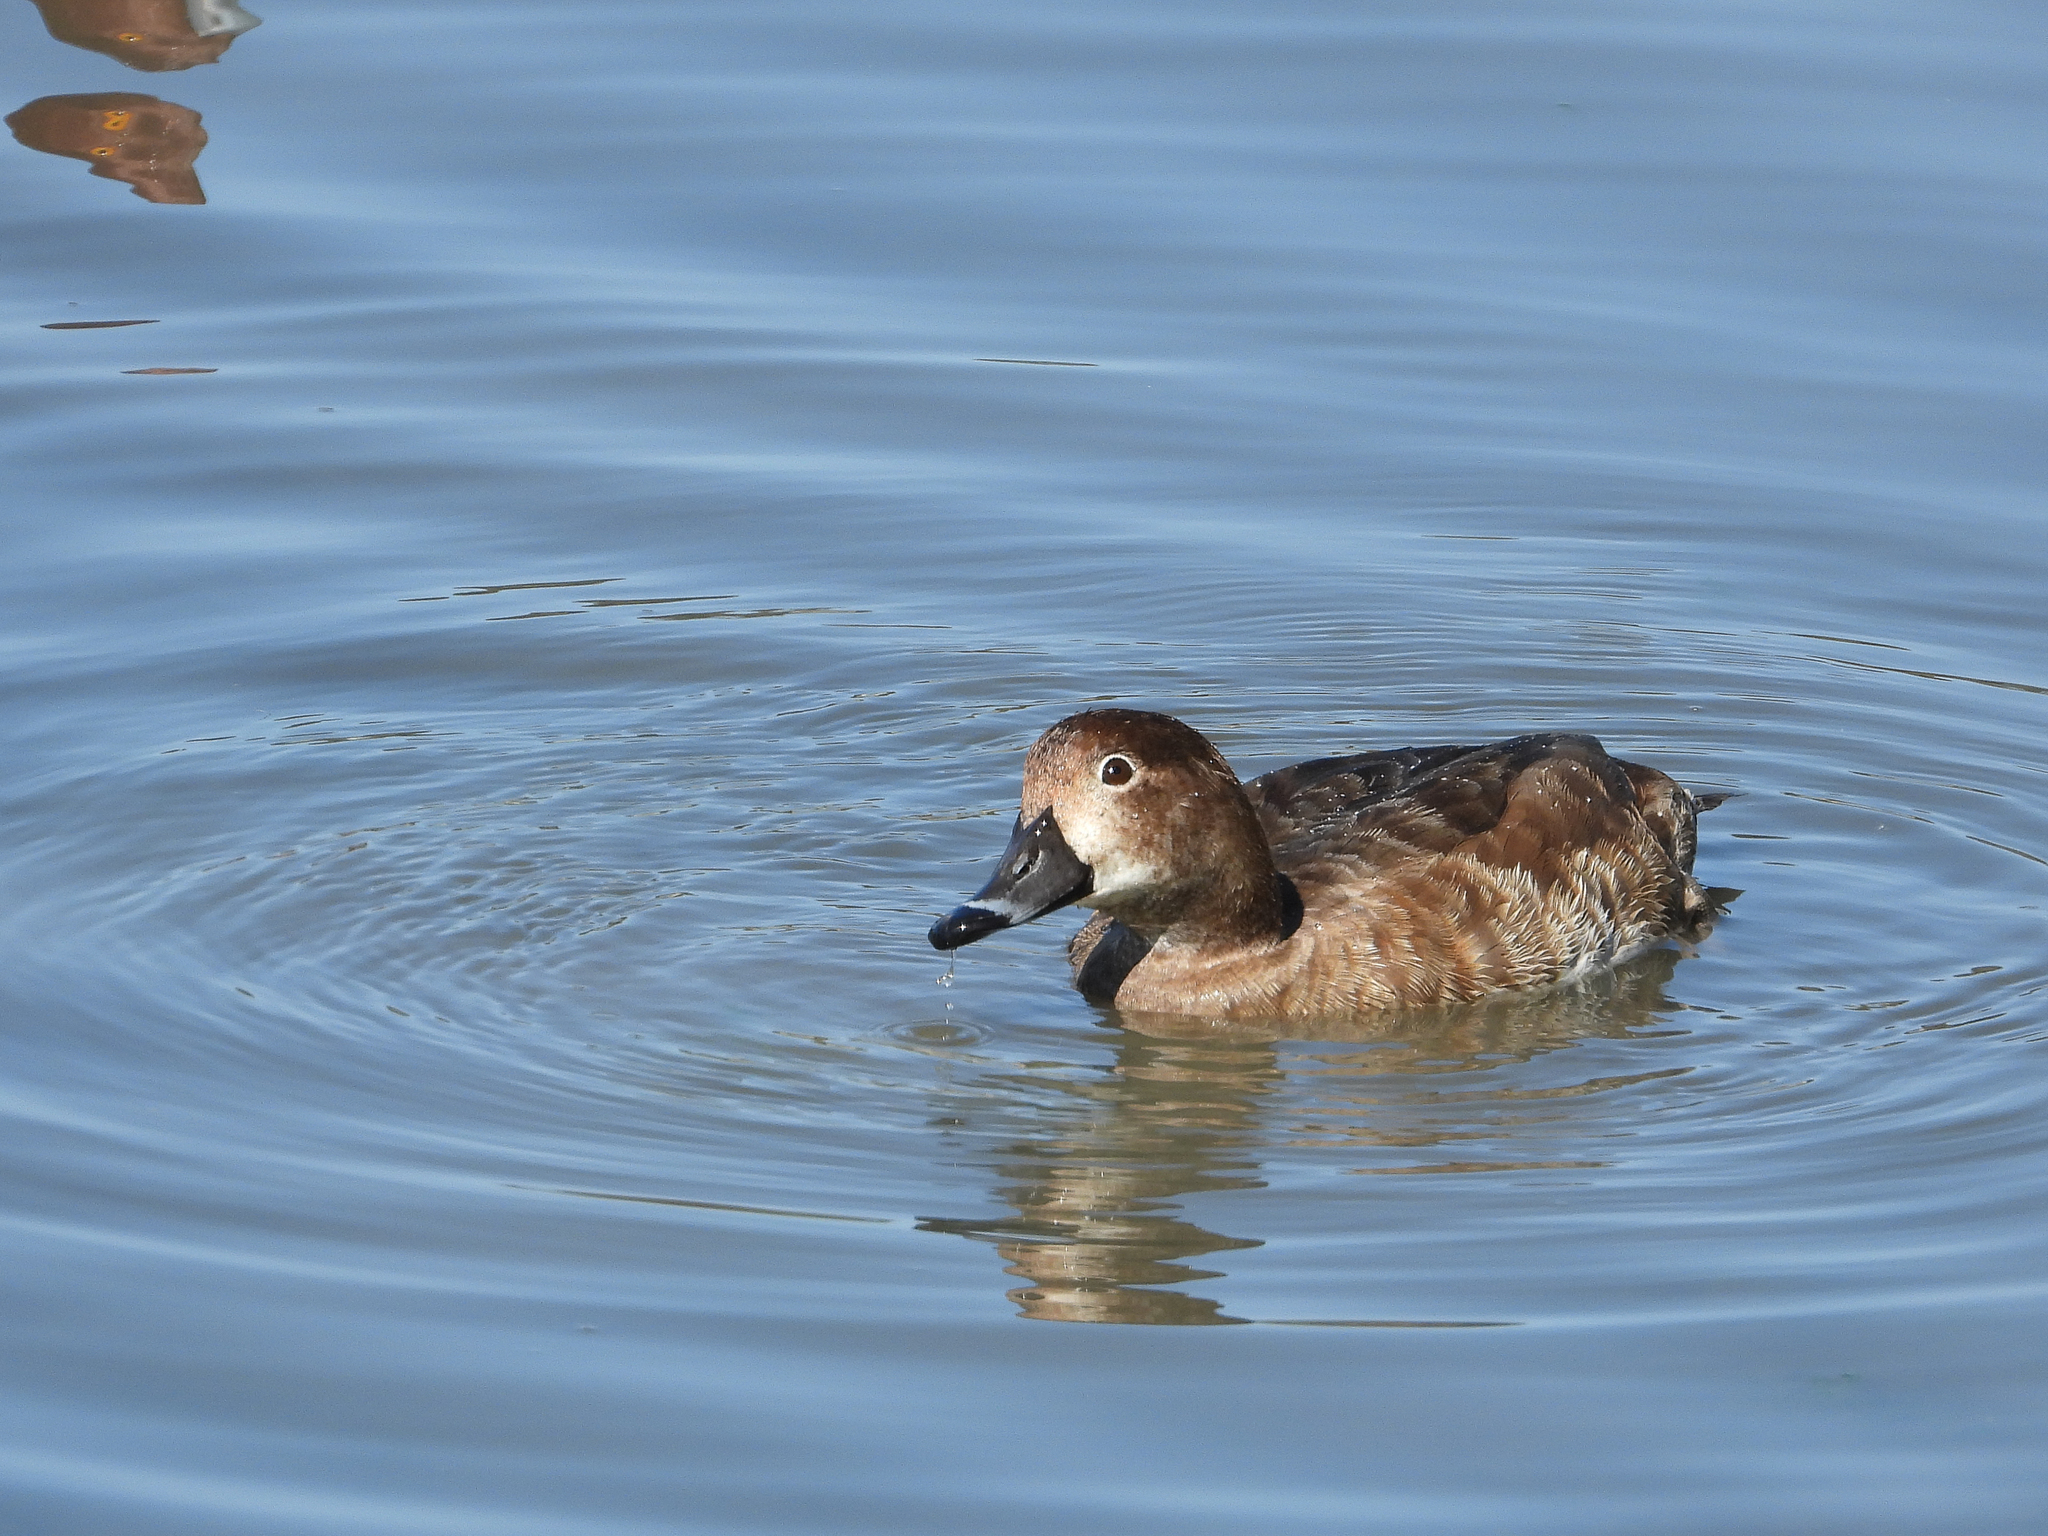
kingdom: Animalia
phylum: Chordata
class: Aves
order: Anseriformes
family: Anatidae
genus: Aythya
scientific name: Aythya americana
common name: Redhead
